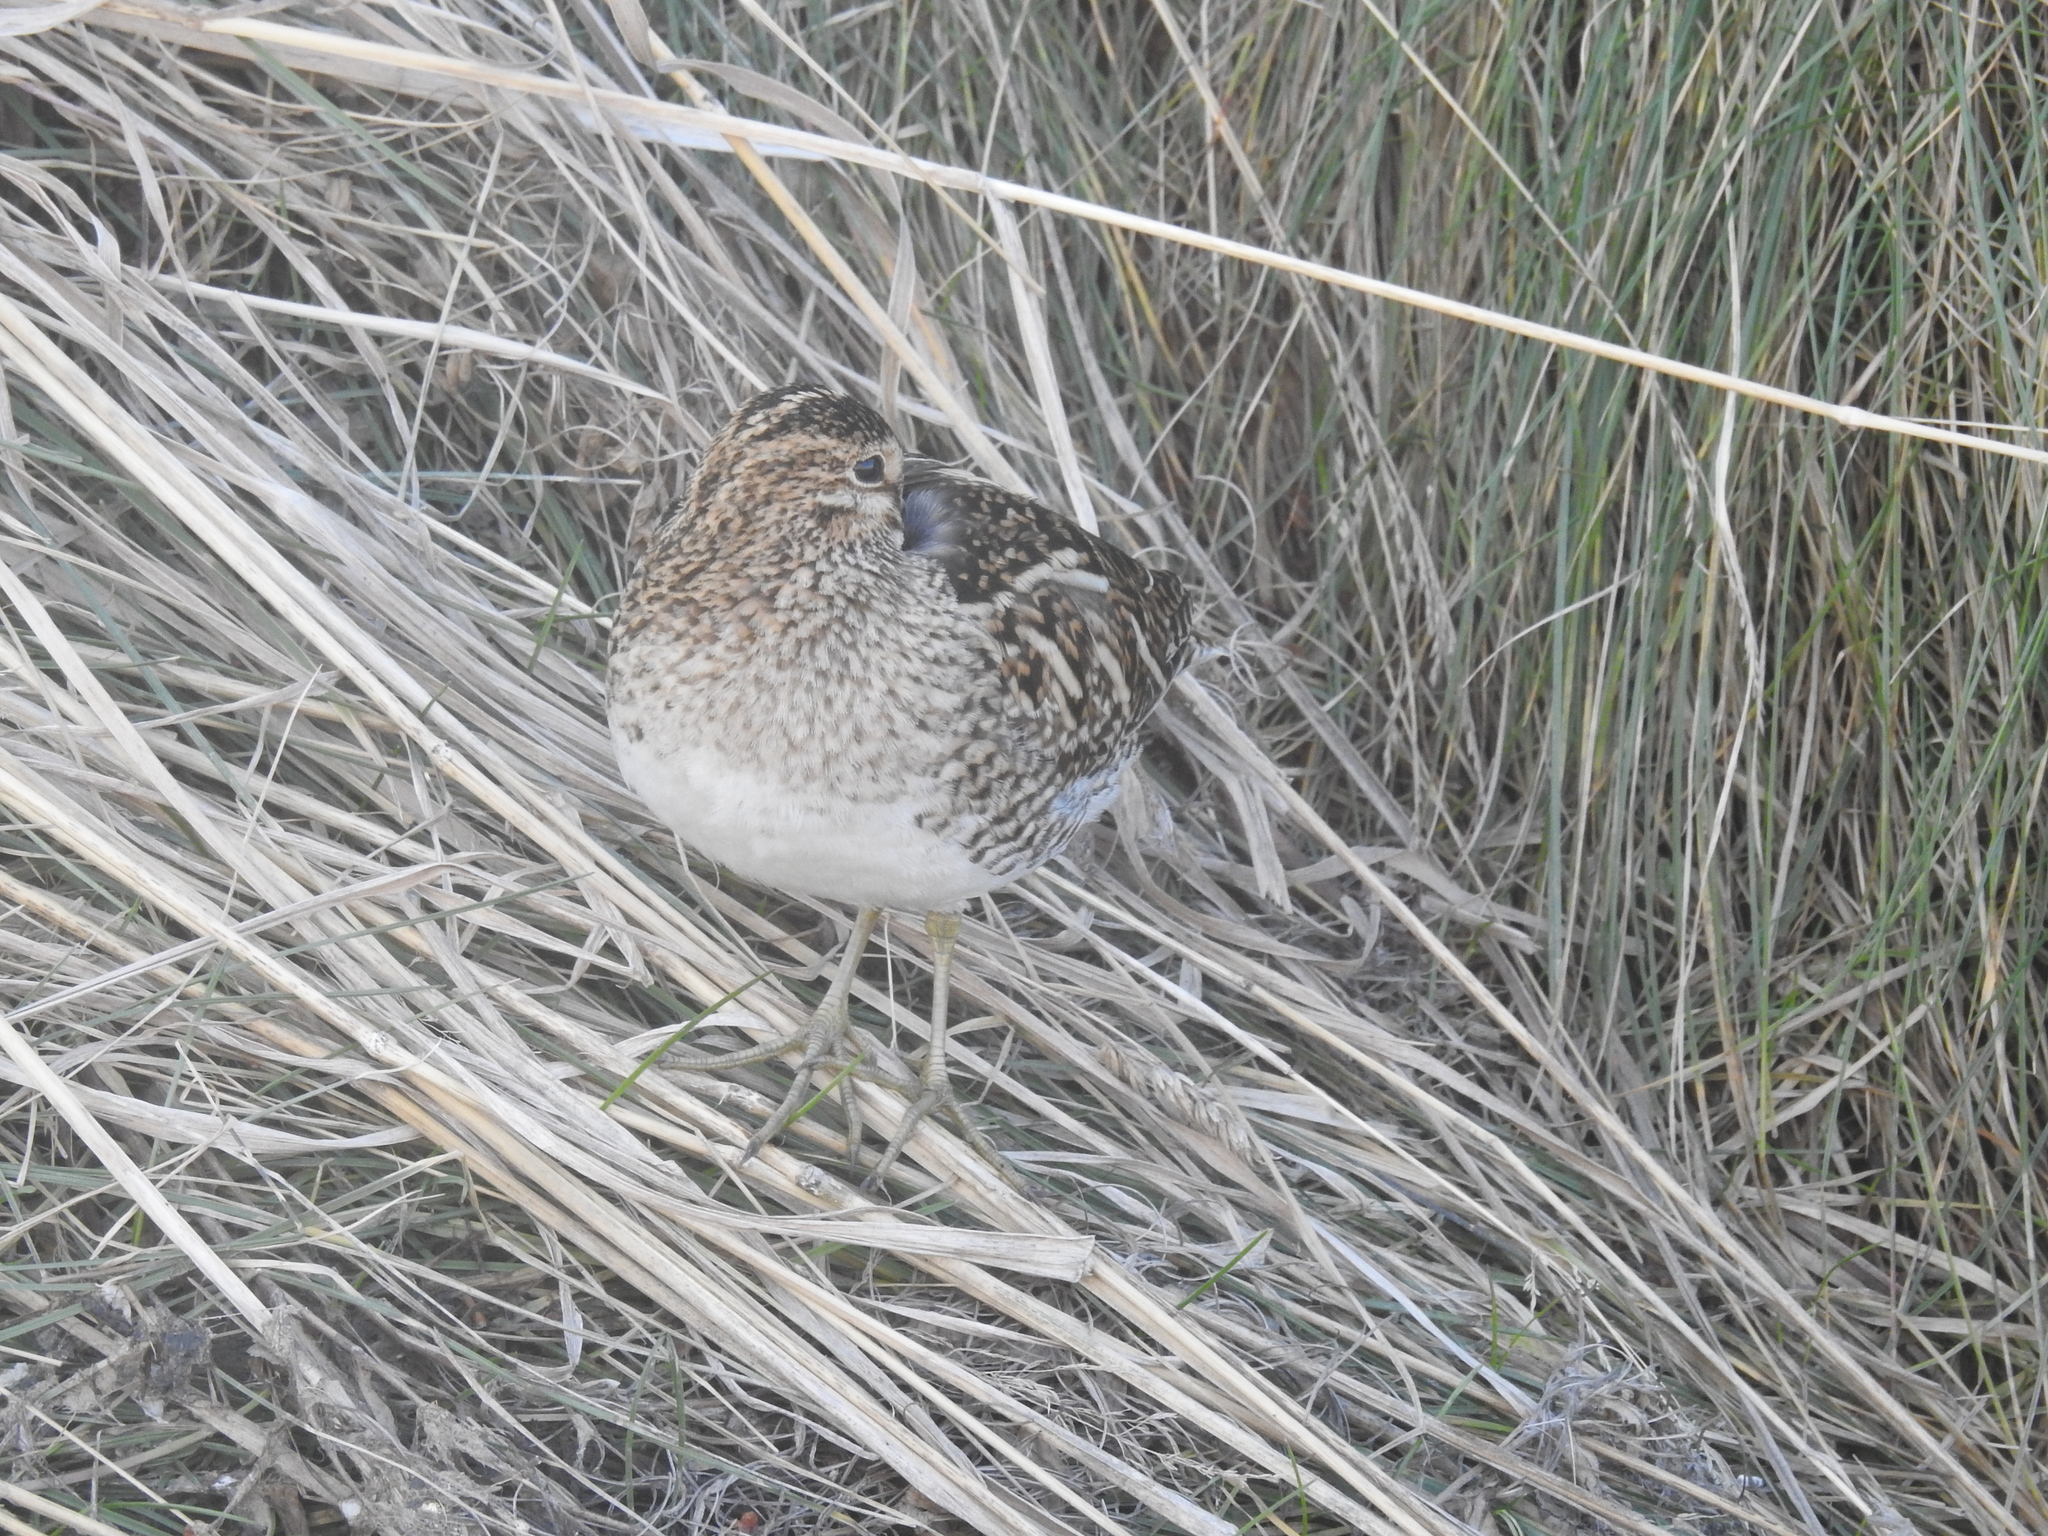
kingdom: Animalia
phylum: Chordata
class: Aves
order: Charadriiformes
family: Scolopacidae
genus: Gallinago
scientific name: Gallinago magellanica
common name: Magellanic snipe
